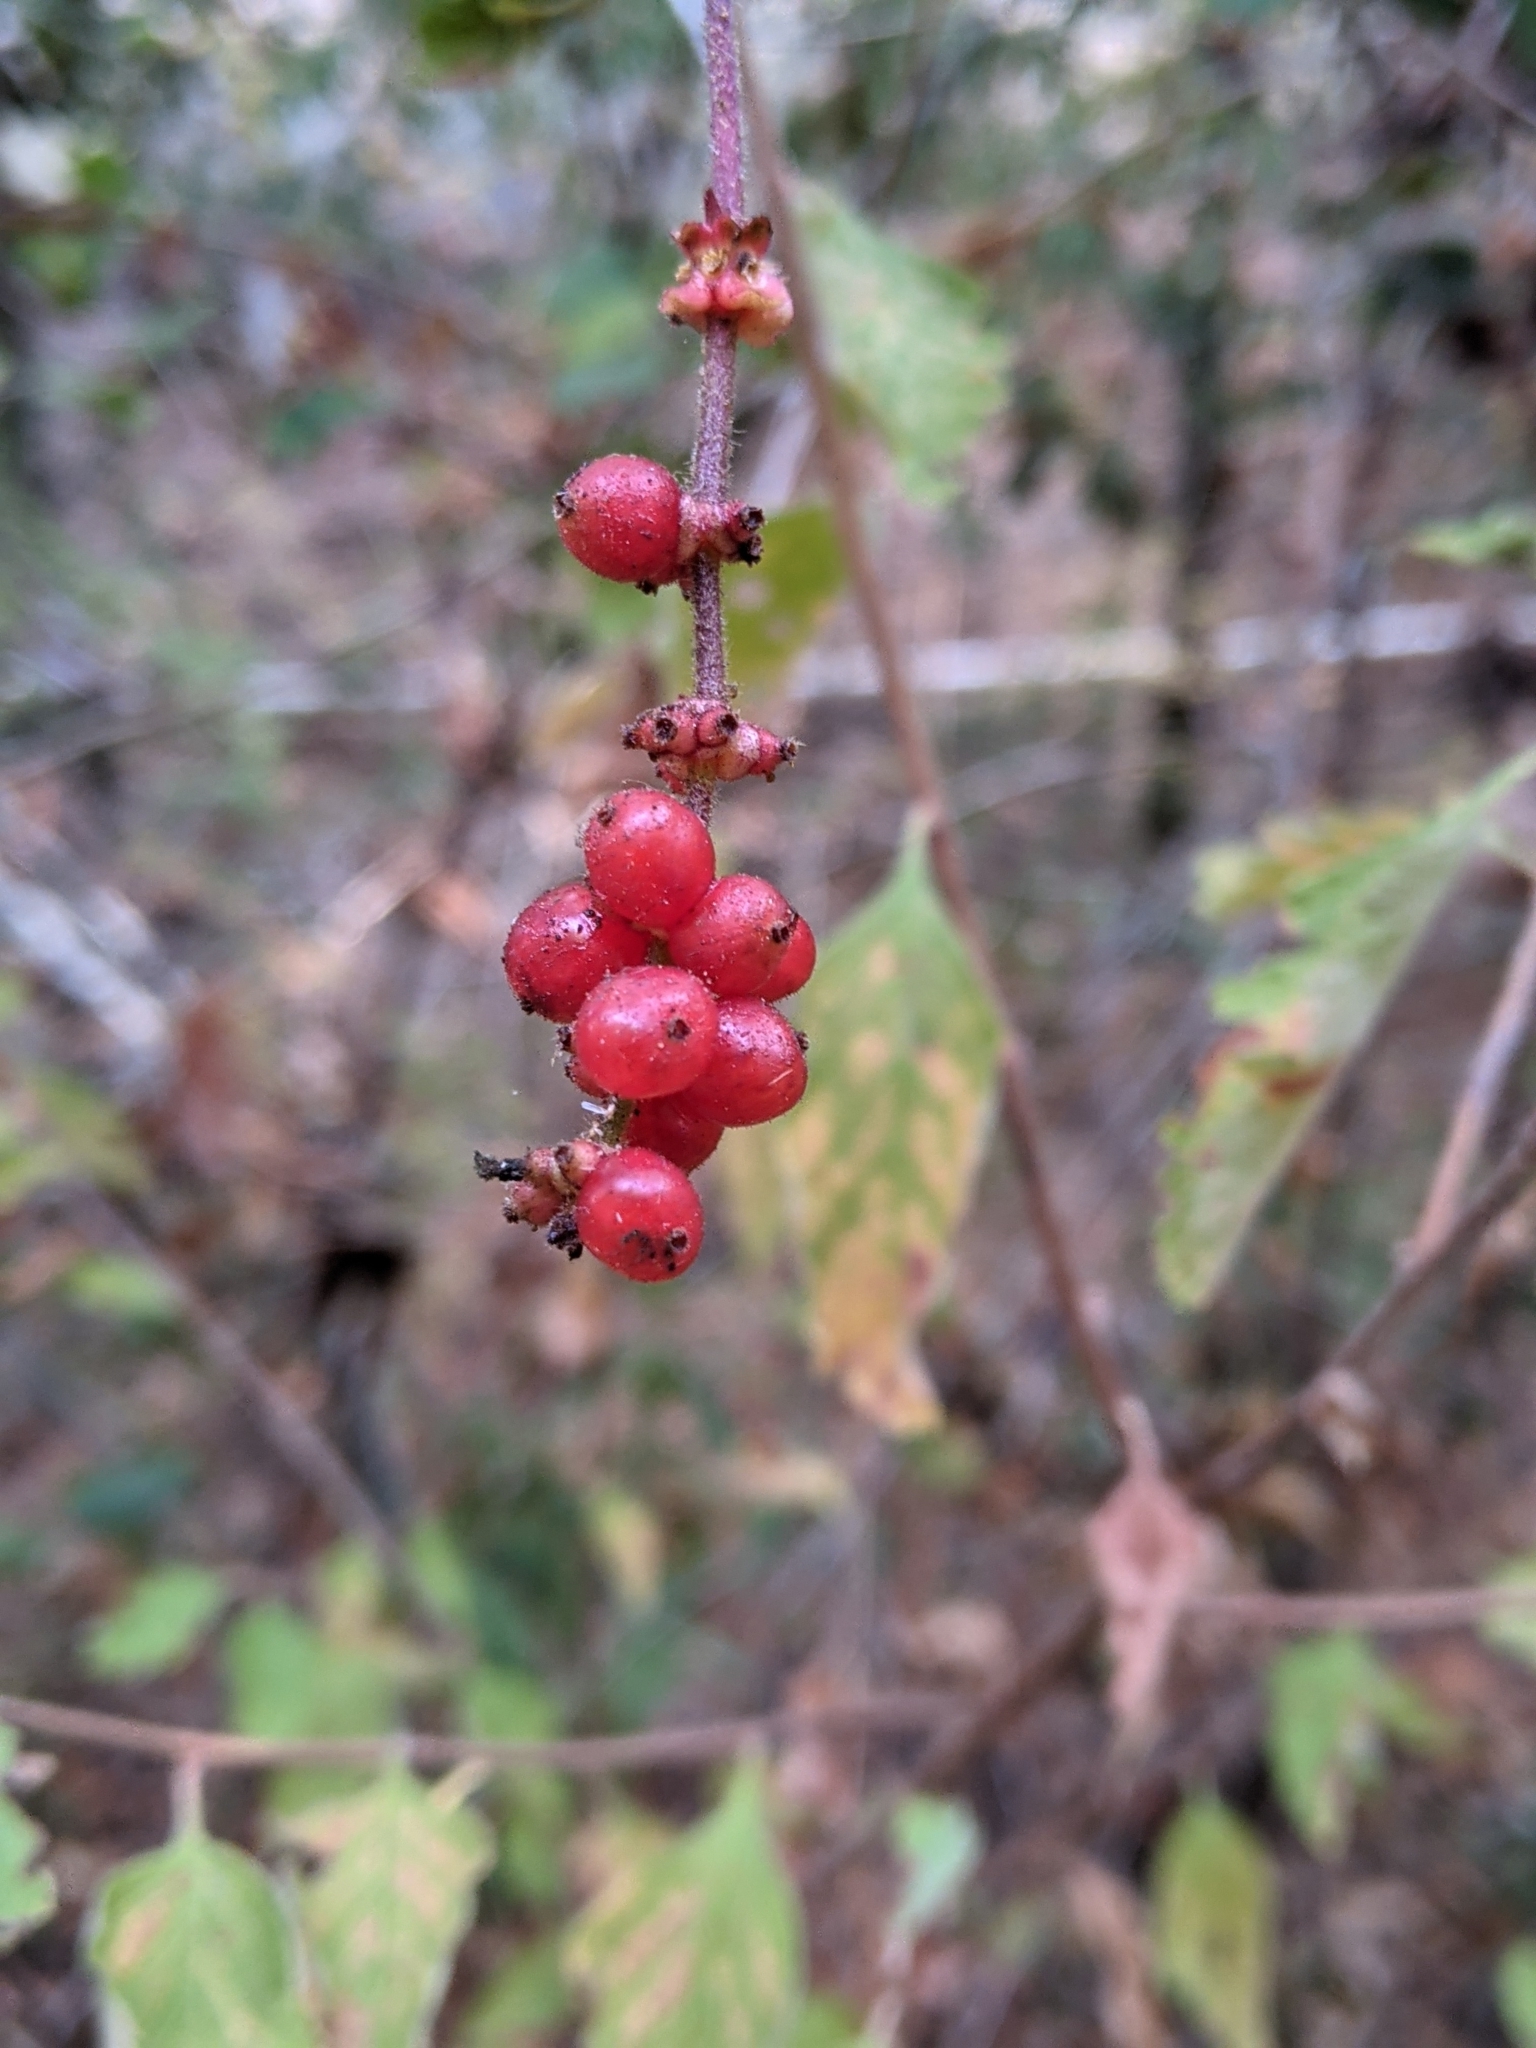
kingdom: Plantae
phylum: Tracheophyta
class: Magnoliopsida
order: Dipsacales
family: Caprifoliaceae
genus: Lonicera
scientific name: Lonicera hispidula
